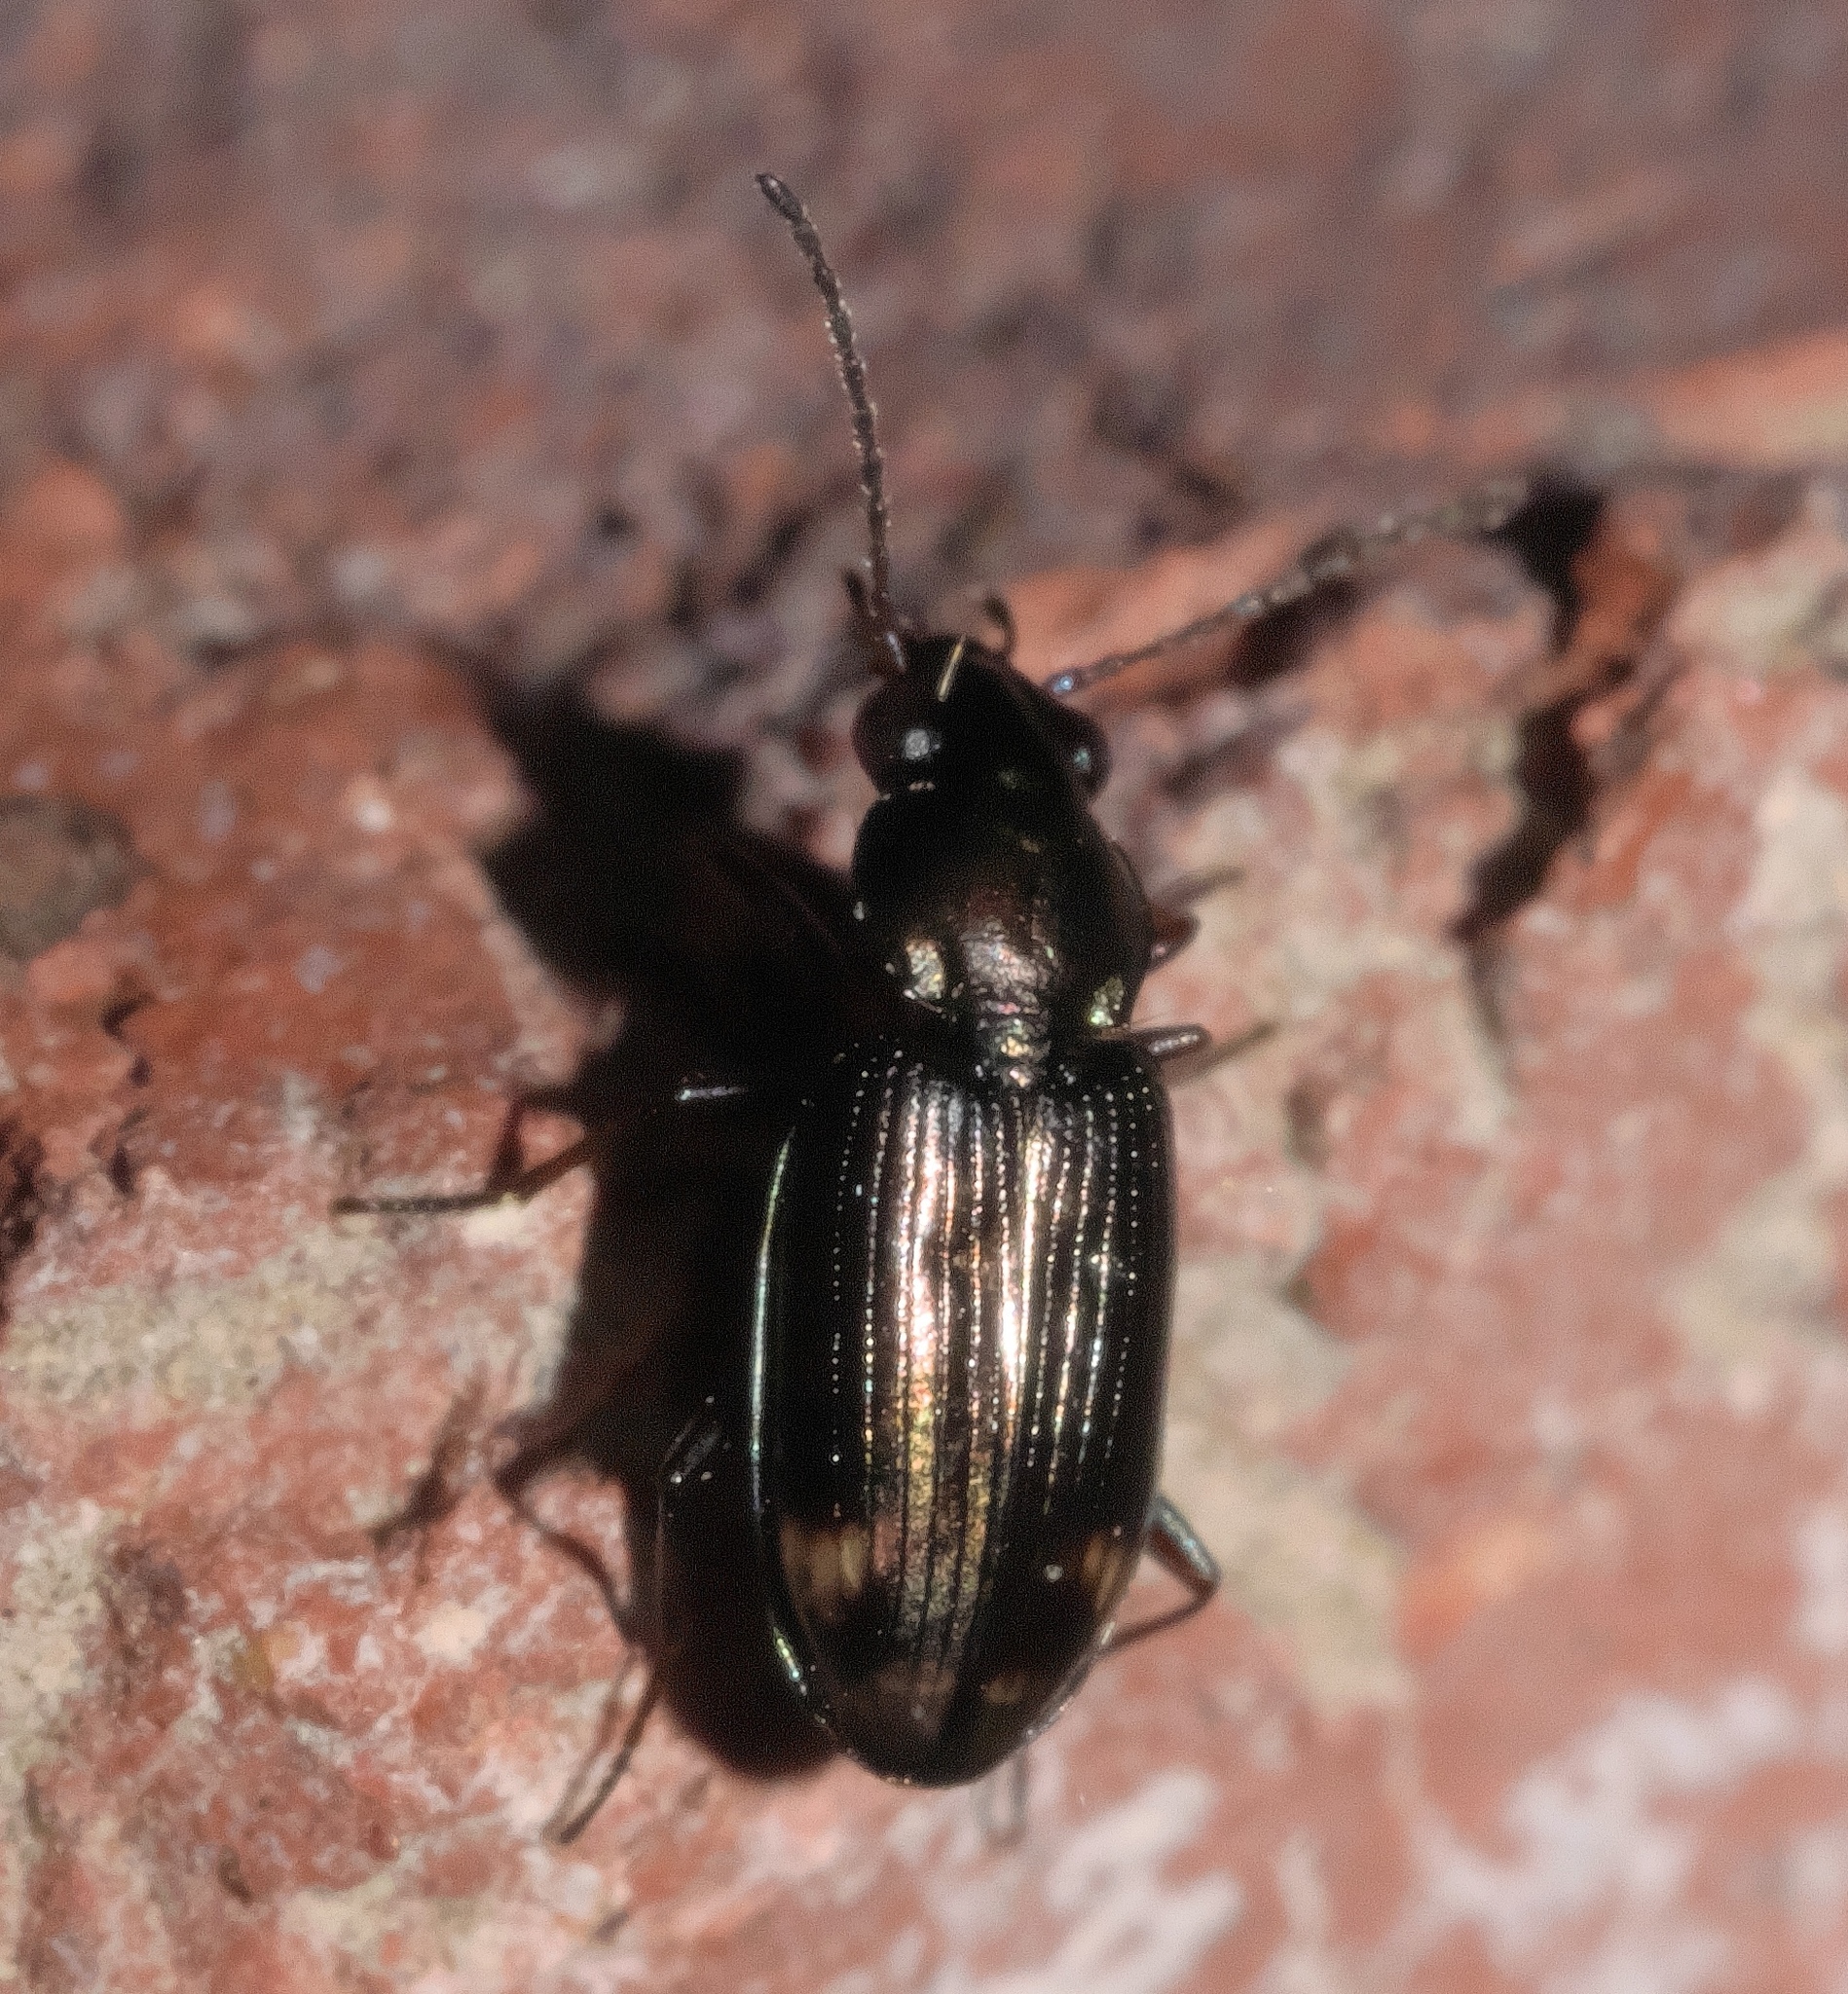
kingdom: Animalia
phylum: Arthropoda
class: Insecta
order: Coleoptera
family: Carabidae
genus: Bembidion
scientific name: Bembidion rapidum
